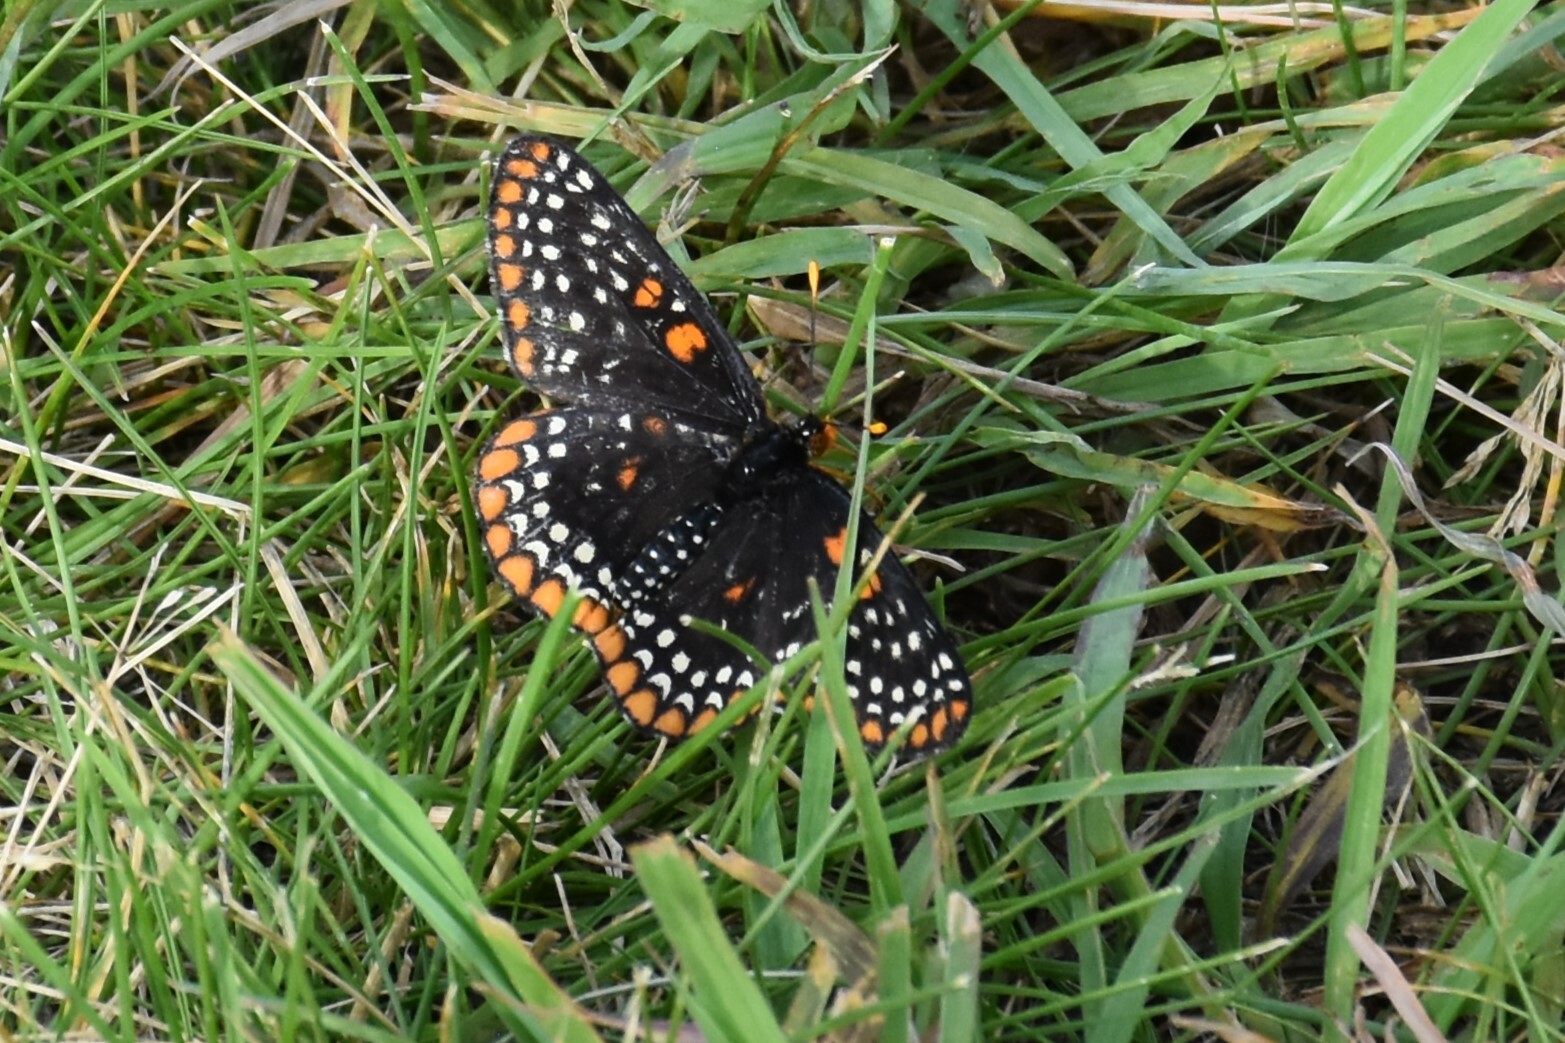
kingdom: Animalia
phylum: Arthropoda
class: Insecta
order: Lepidoptera
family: Nymphalidae
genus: Euphydryas
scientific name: Euphydryas phaeton
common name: Baltimore checkerspot
